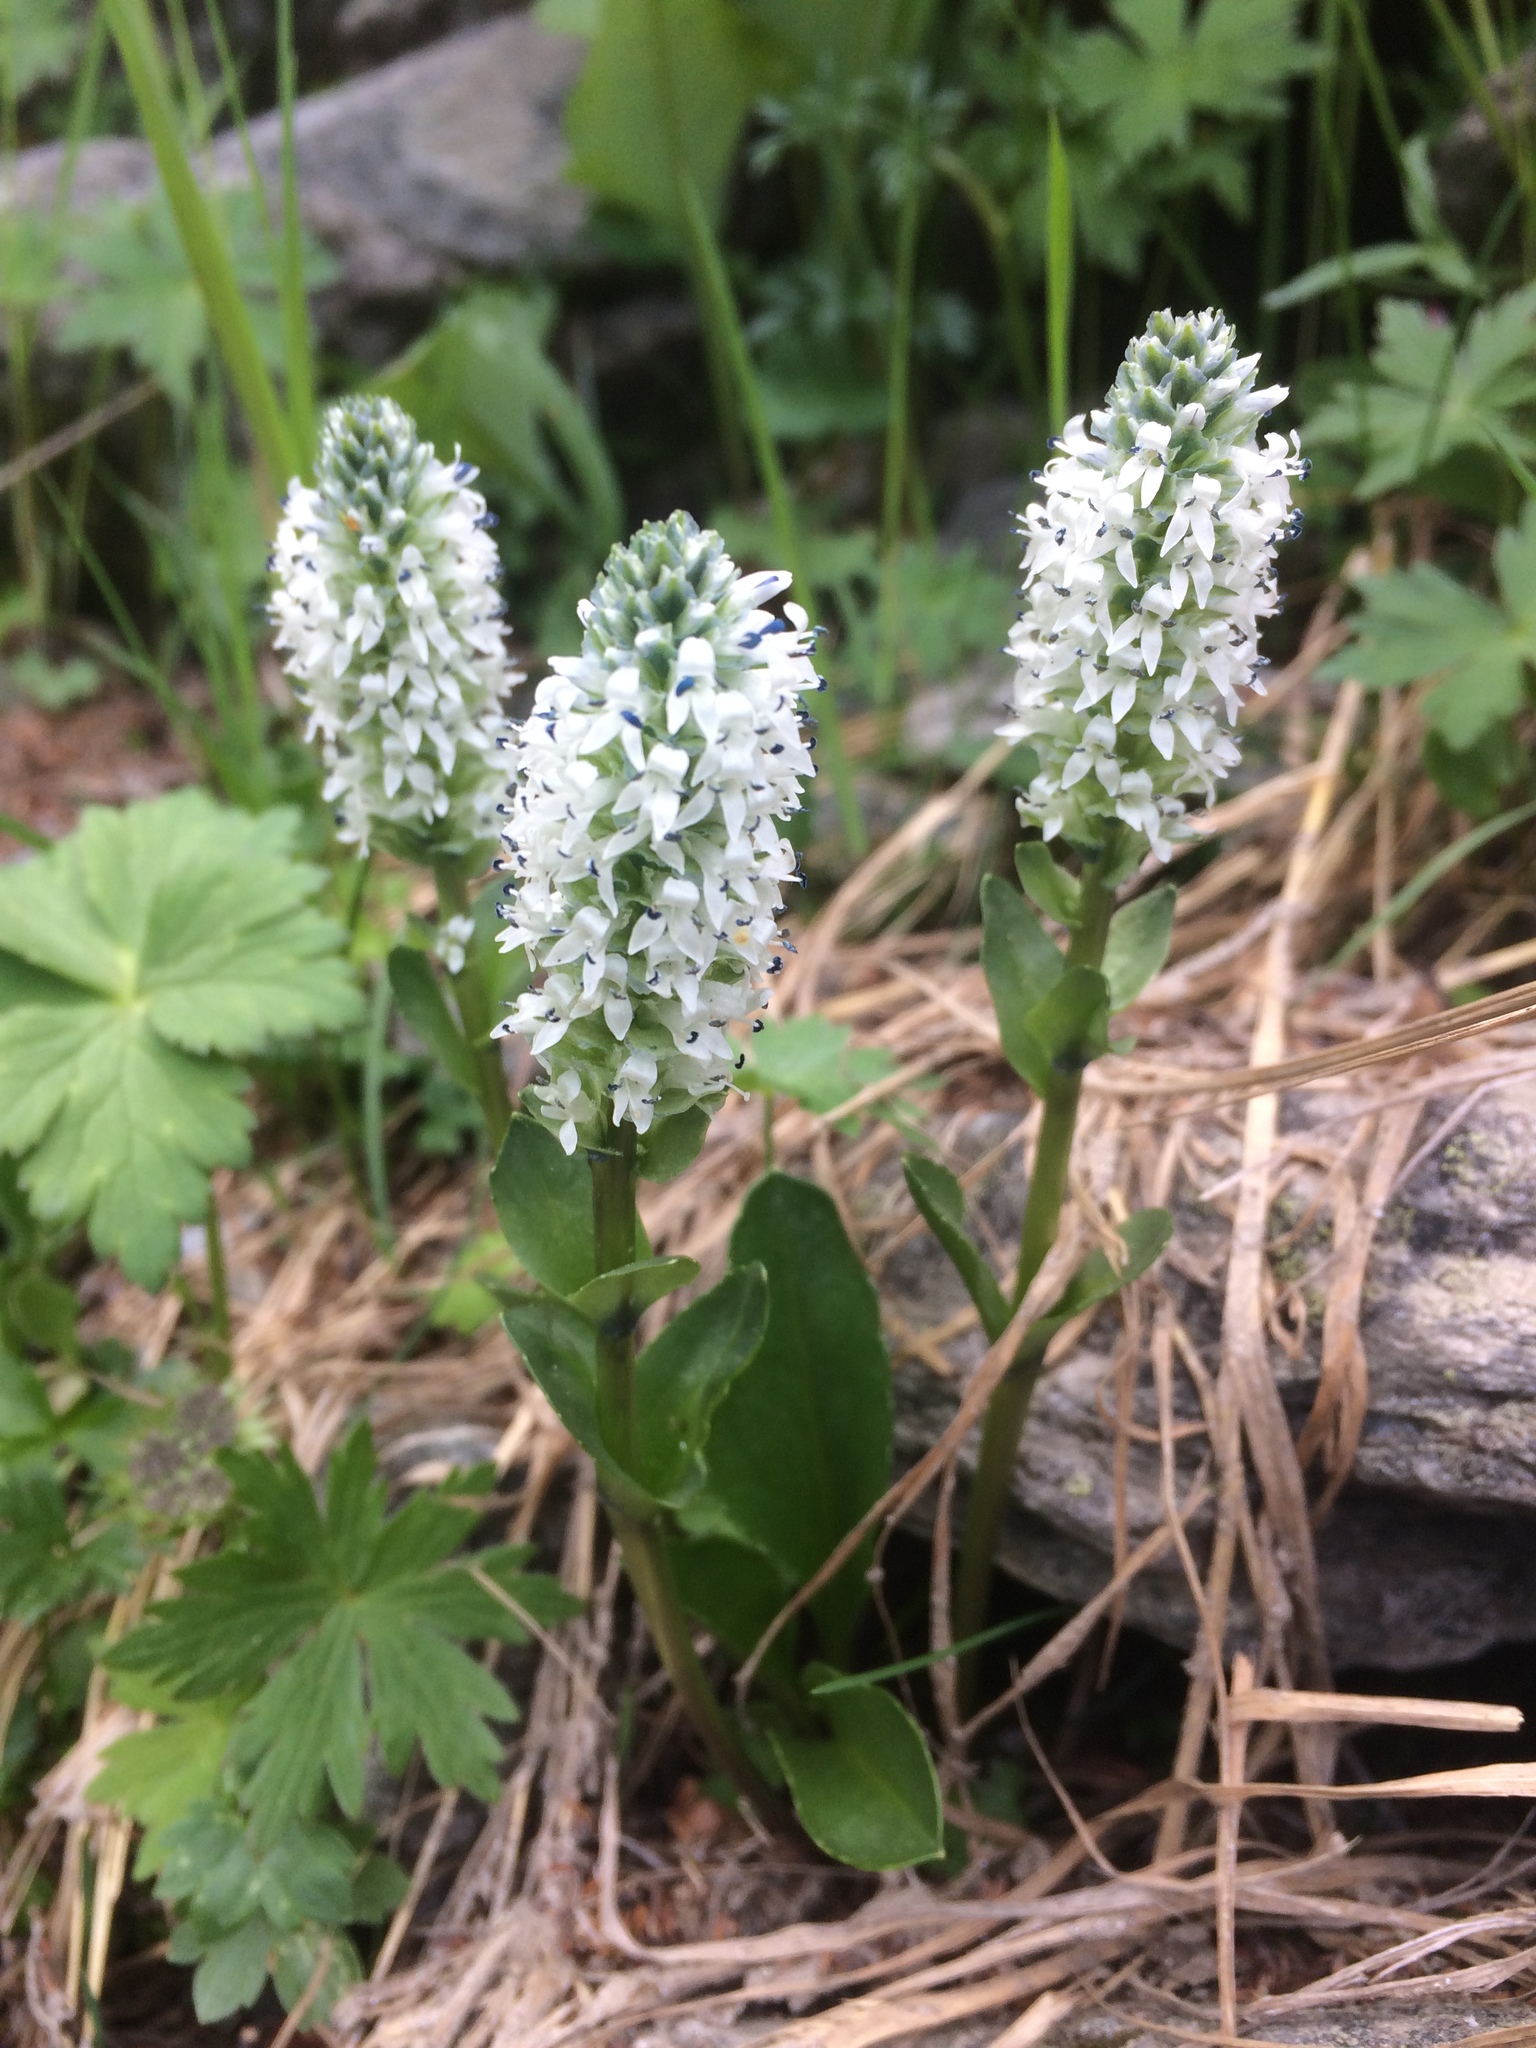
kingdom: Plantae
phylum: Tracheophyta
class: Magnoliopsida
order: Lamiales
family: Plantaginaceae
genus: Lagotis
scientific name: Lagotis glauca
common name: Glaucous weaselsnout
